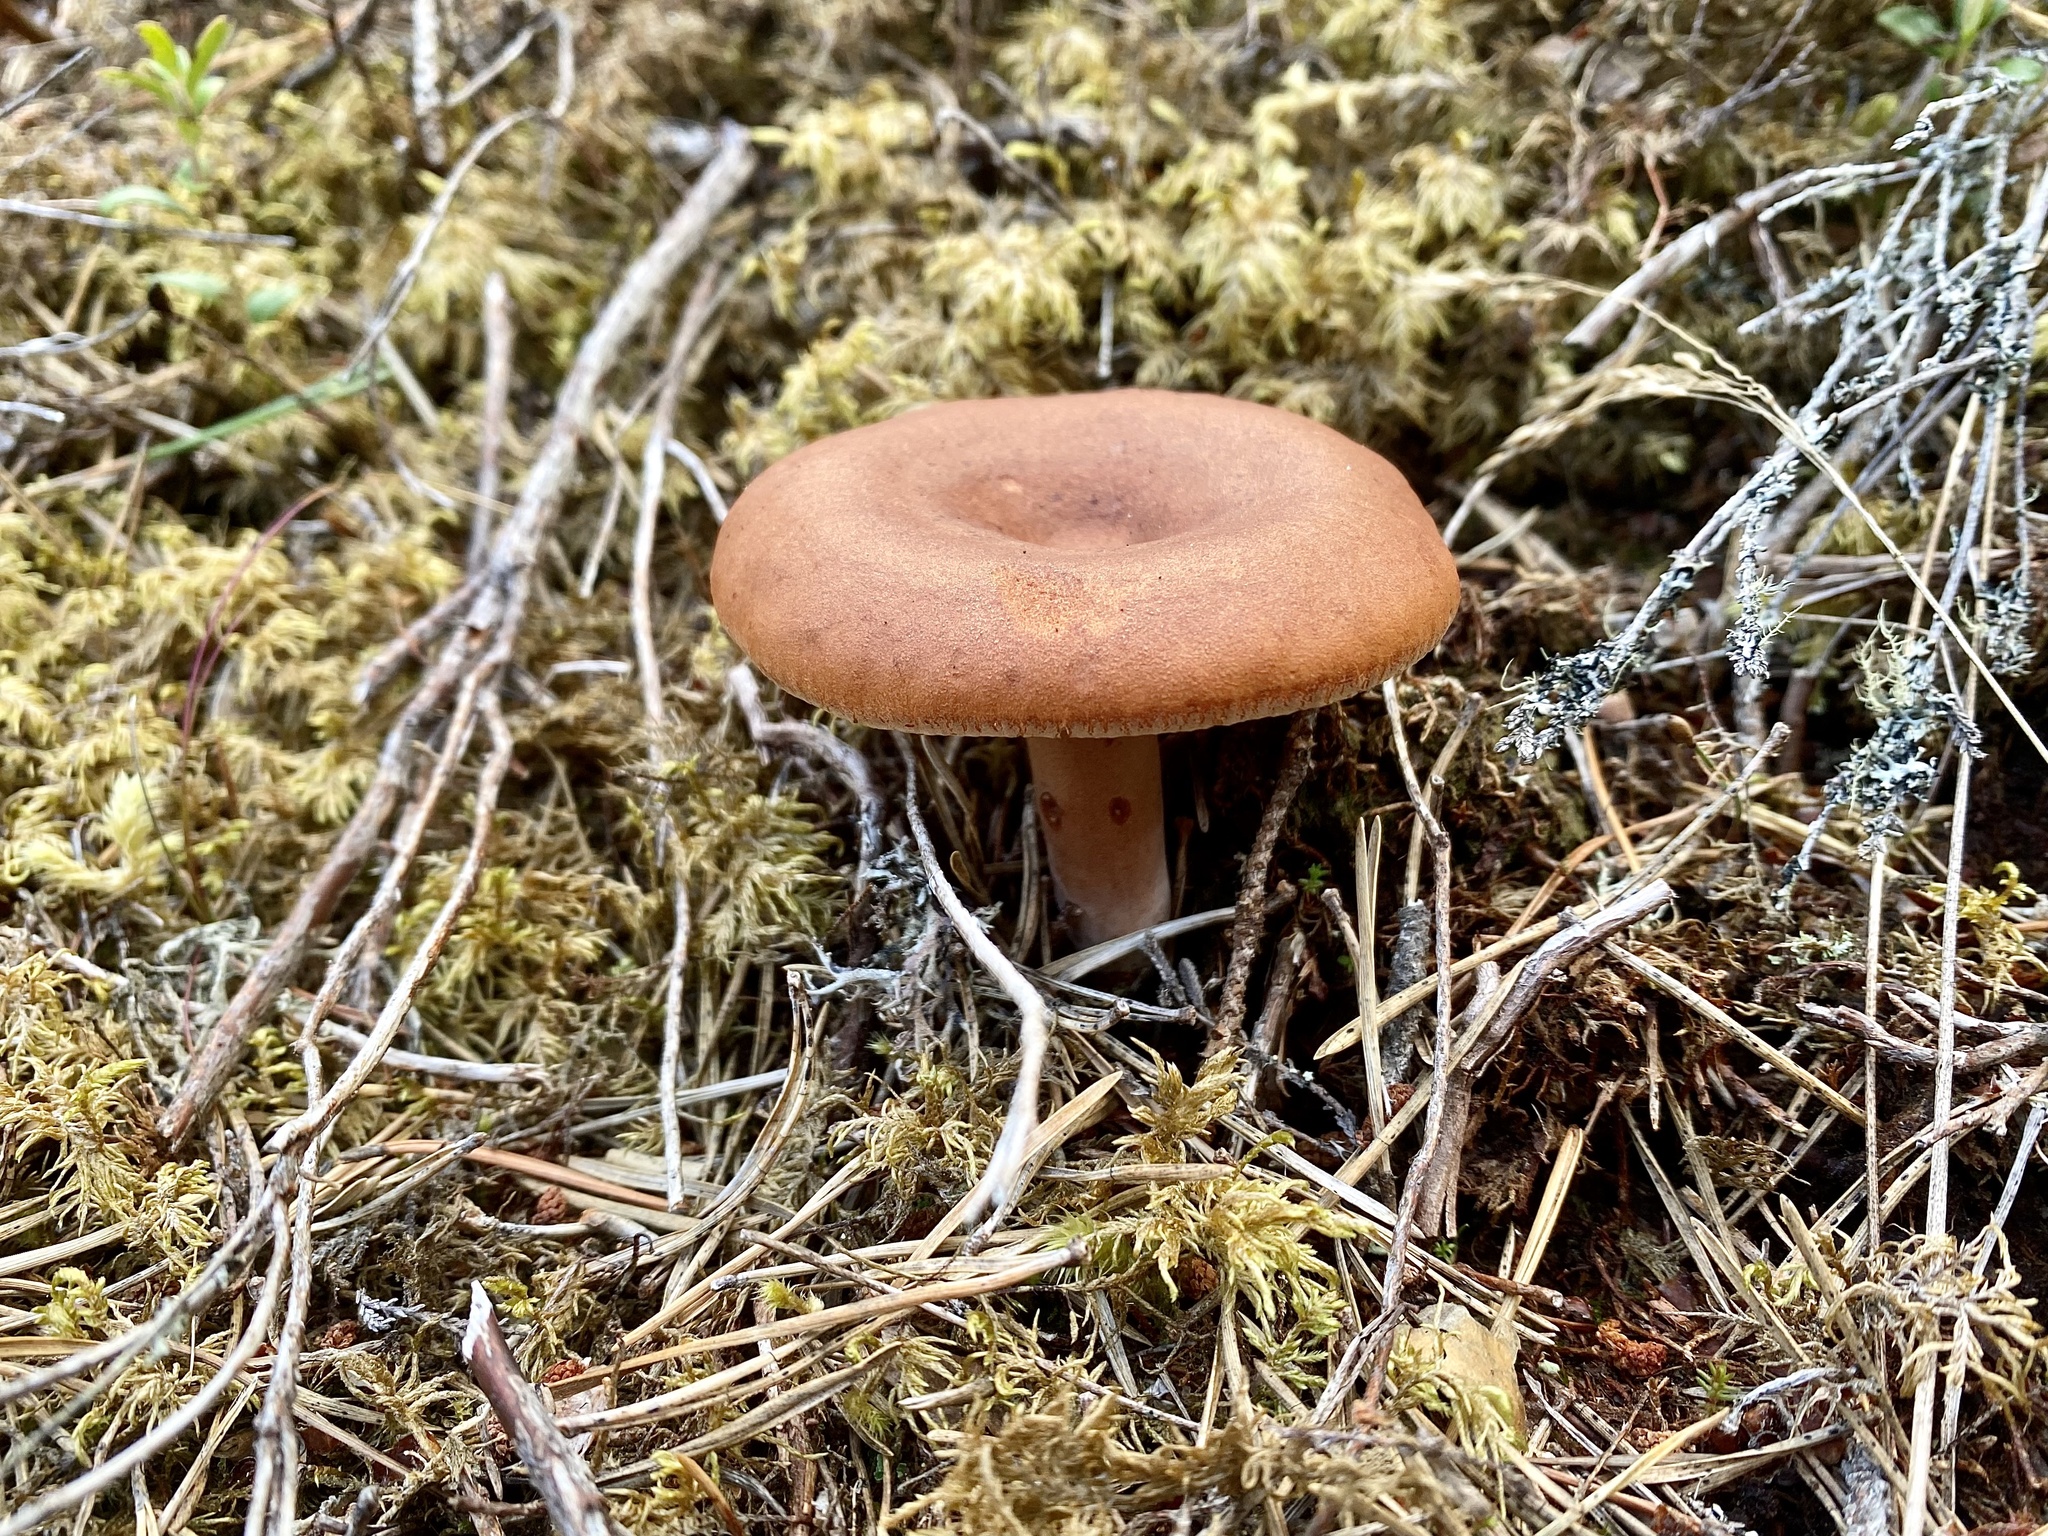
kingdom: Fungi
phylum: Basidiomycota
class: Agaricomycetes
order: Russulales
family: Russulaceae
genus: Lactarius
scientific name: Lactarius rufus
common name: Rufous milk-cap
